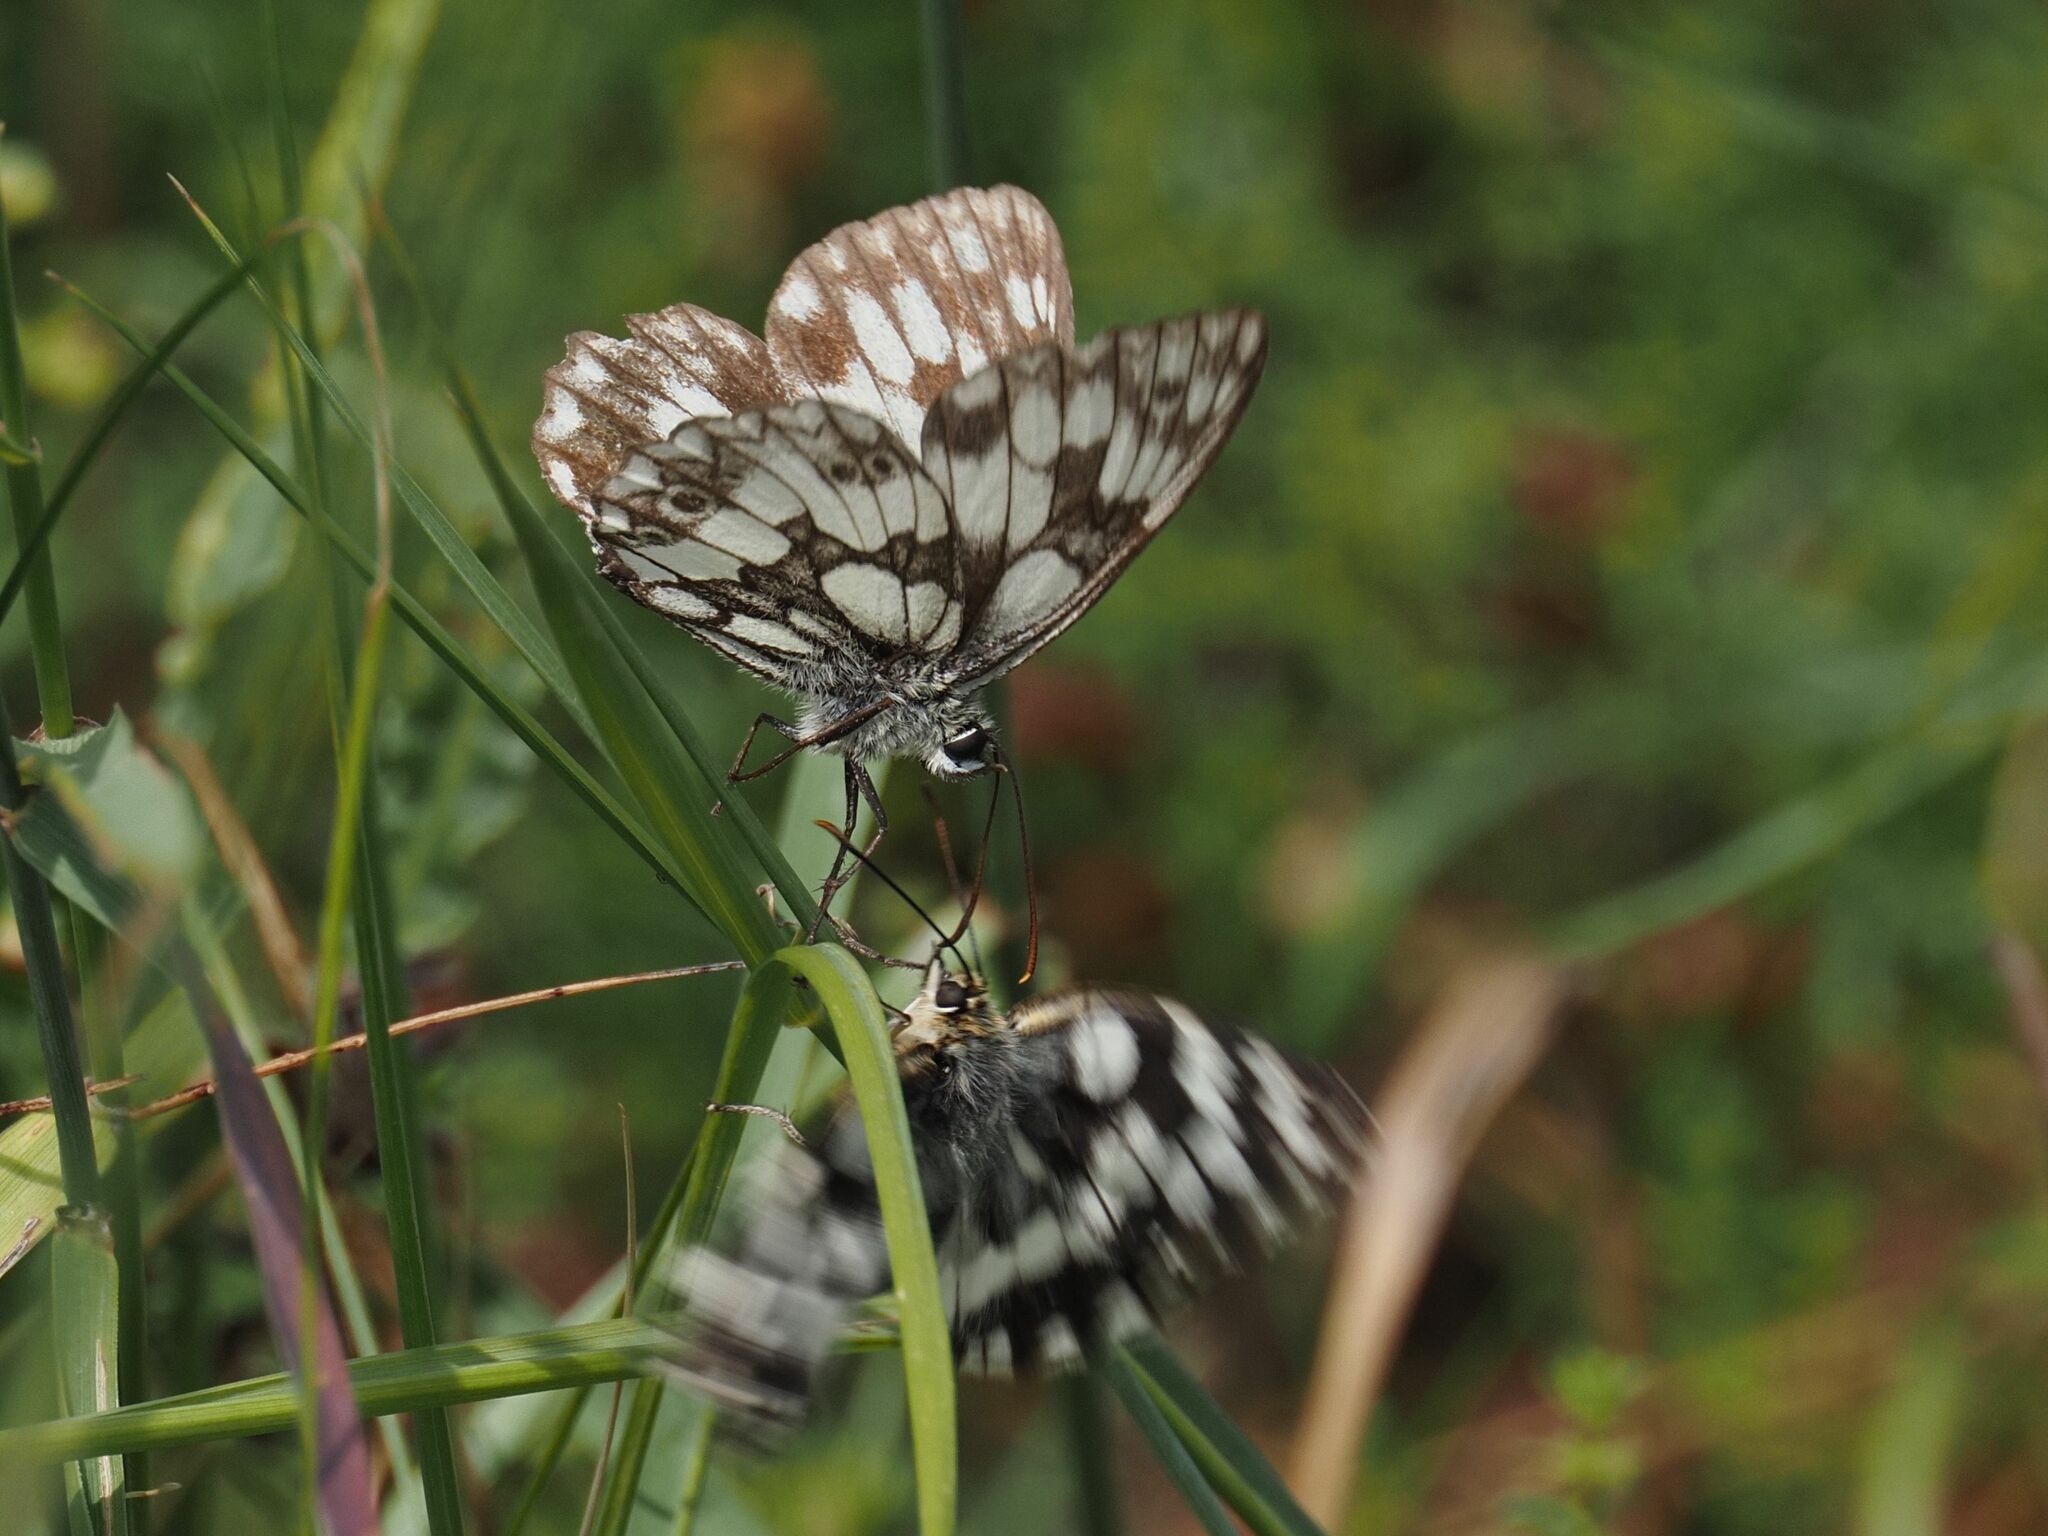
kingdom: Animalia
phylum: Arthropoda
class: Insecta
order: Lepidoptera
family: Nymphalidae
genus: Melanargia
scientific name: Melanargia galathea
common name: Marbled white
